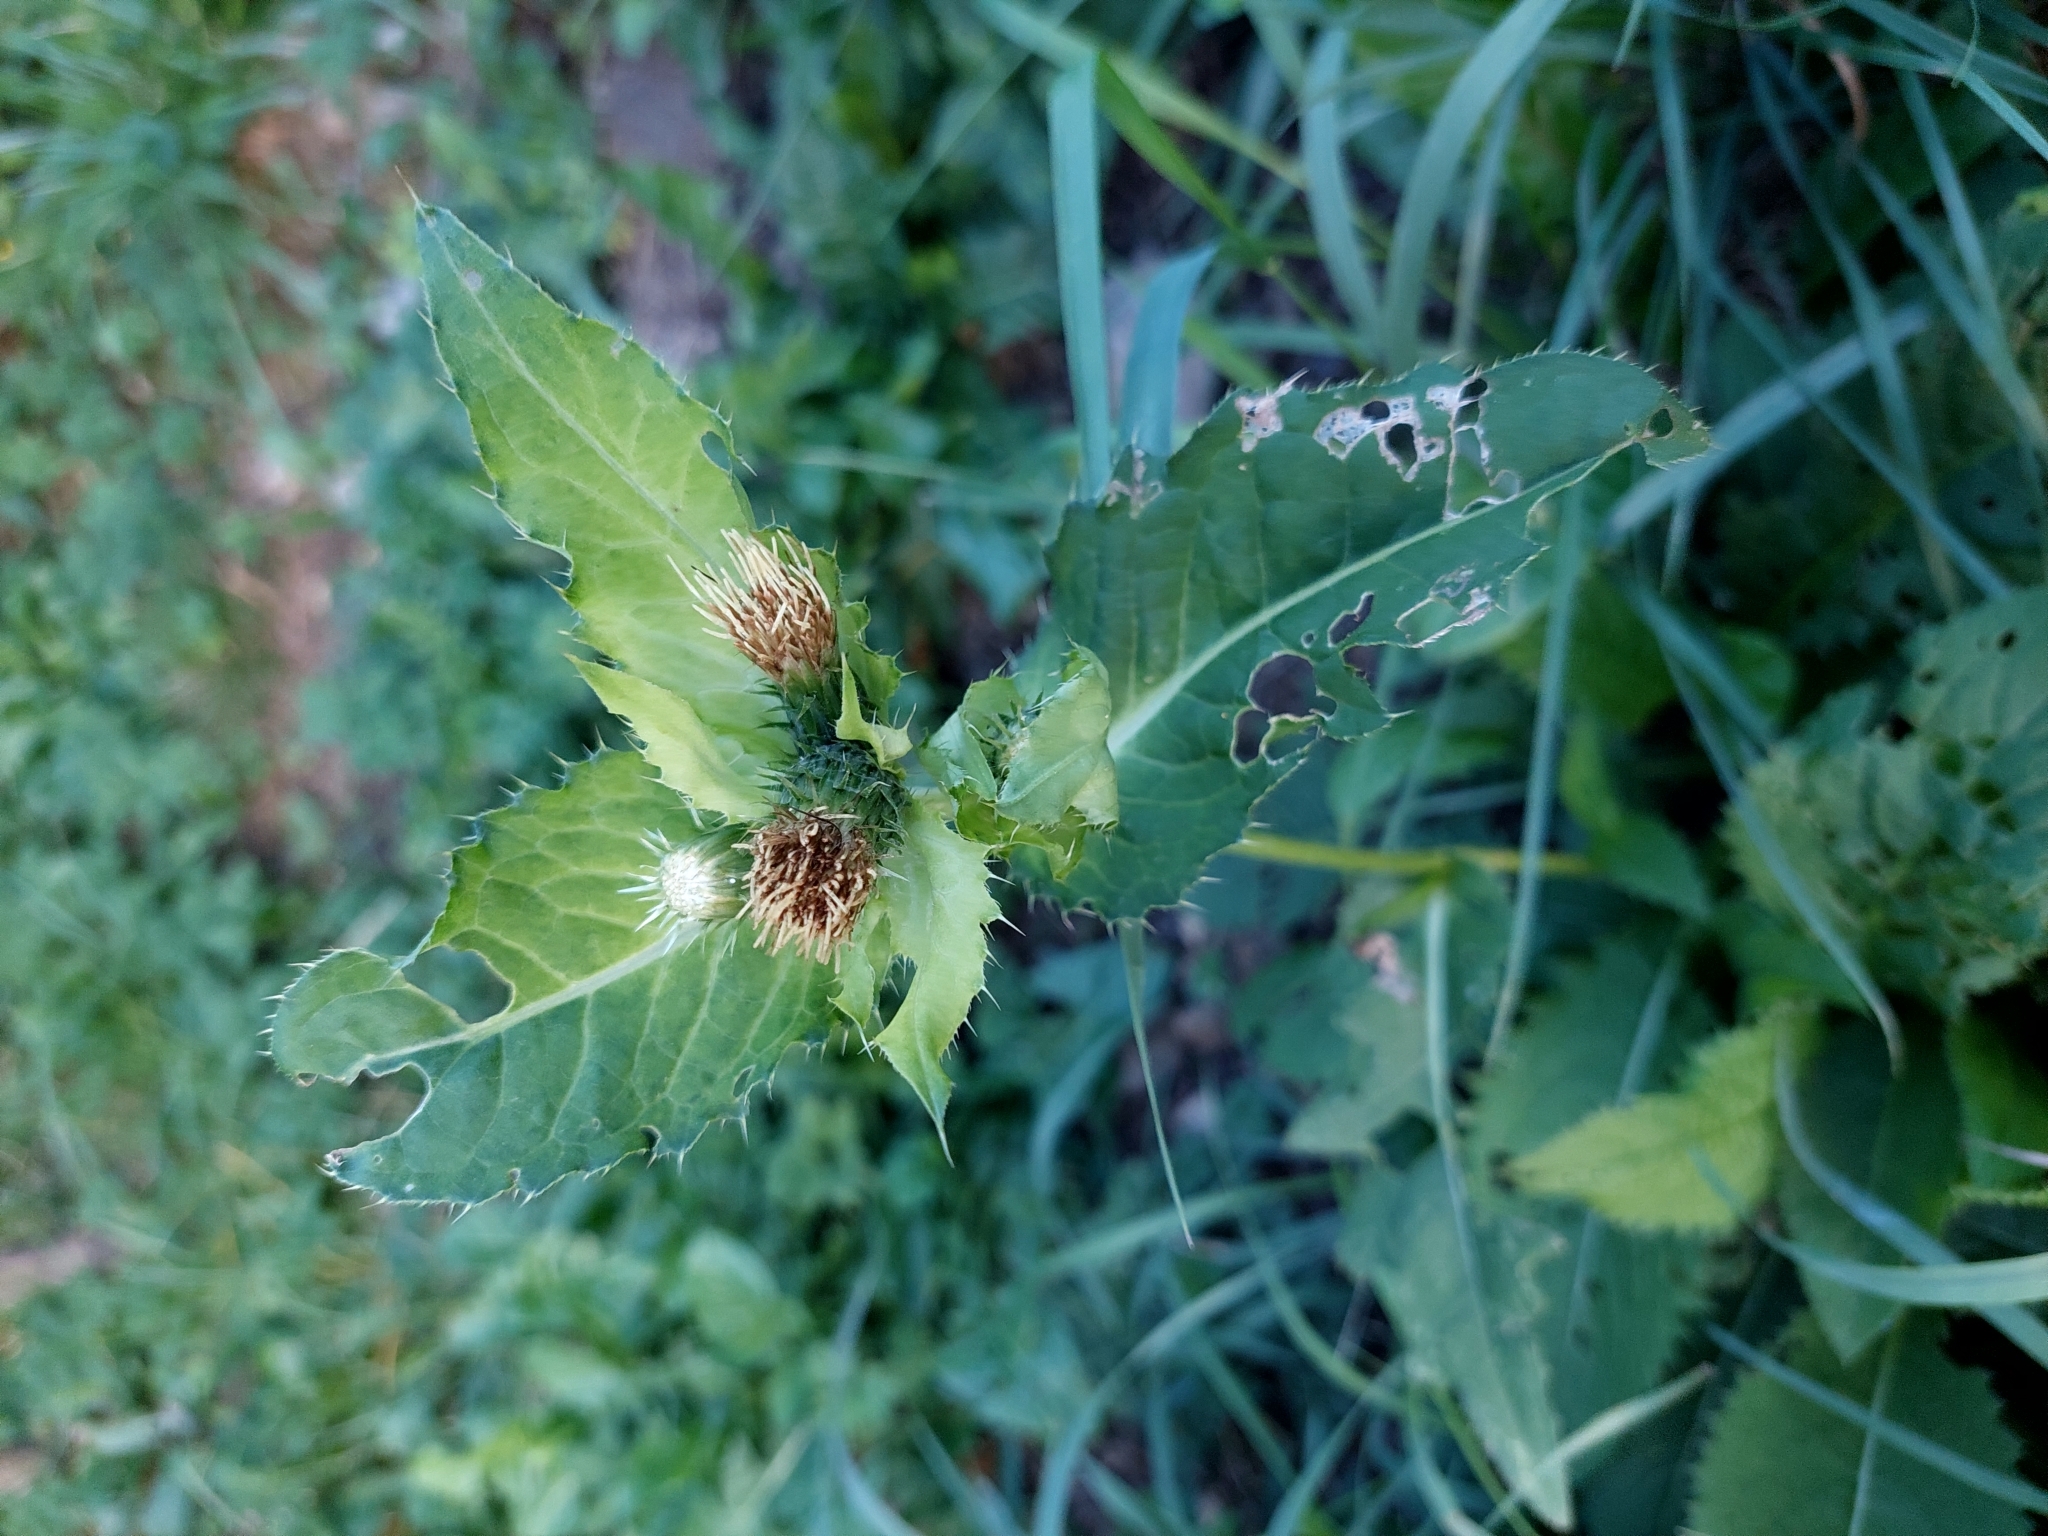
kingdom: Plantae
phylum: Tracheophyta
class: Magnoliopsida
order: Asterales
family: Asteraceae
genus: Cirsium
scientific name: Cirsium oleraceum
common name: Cabbage thistle
